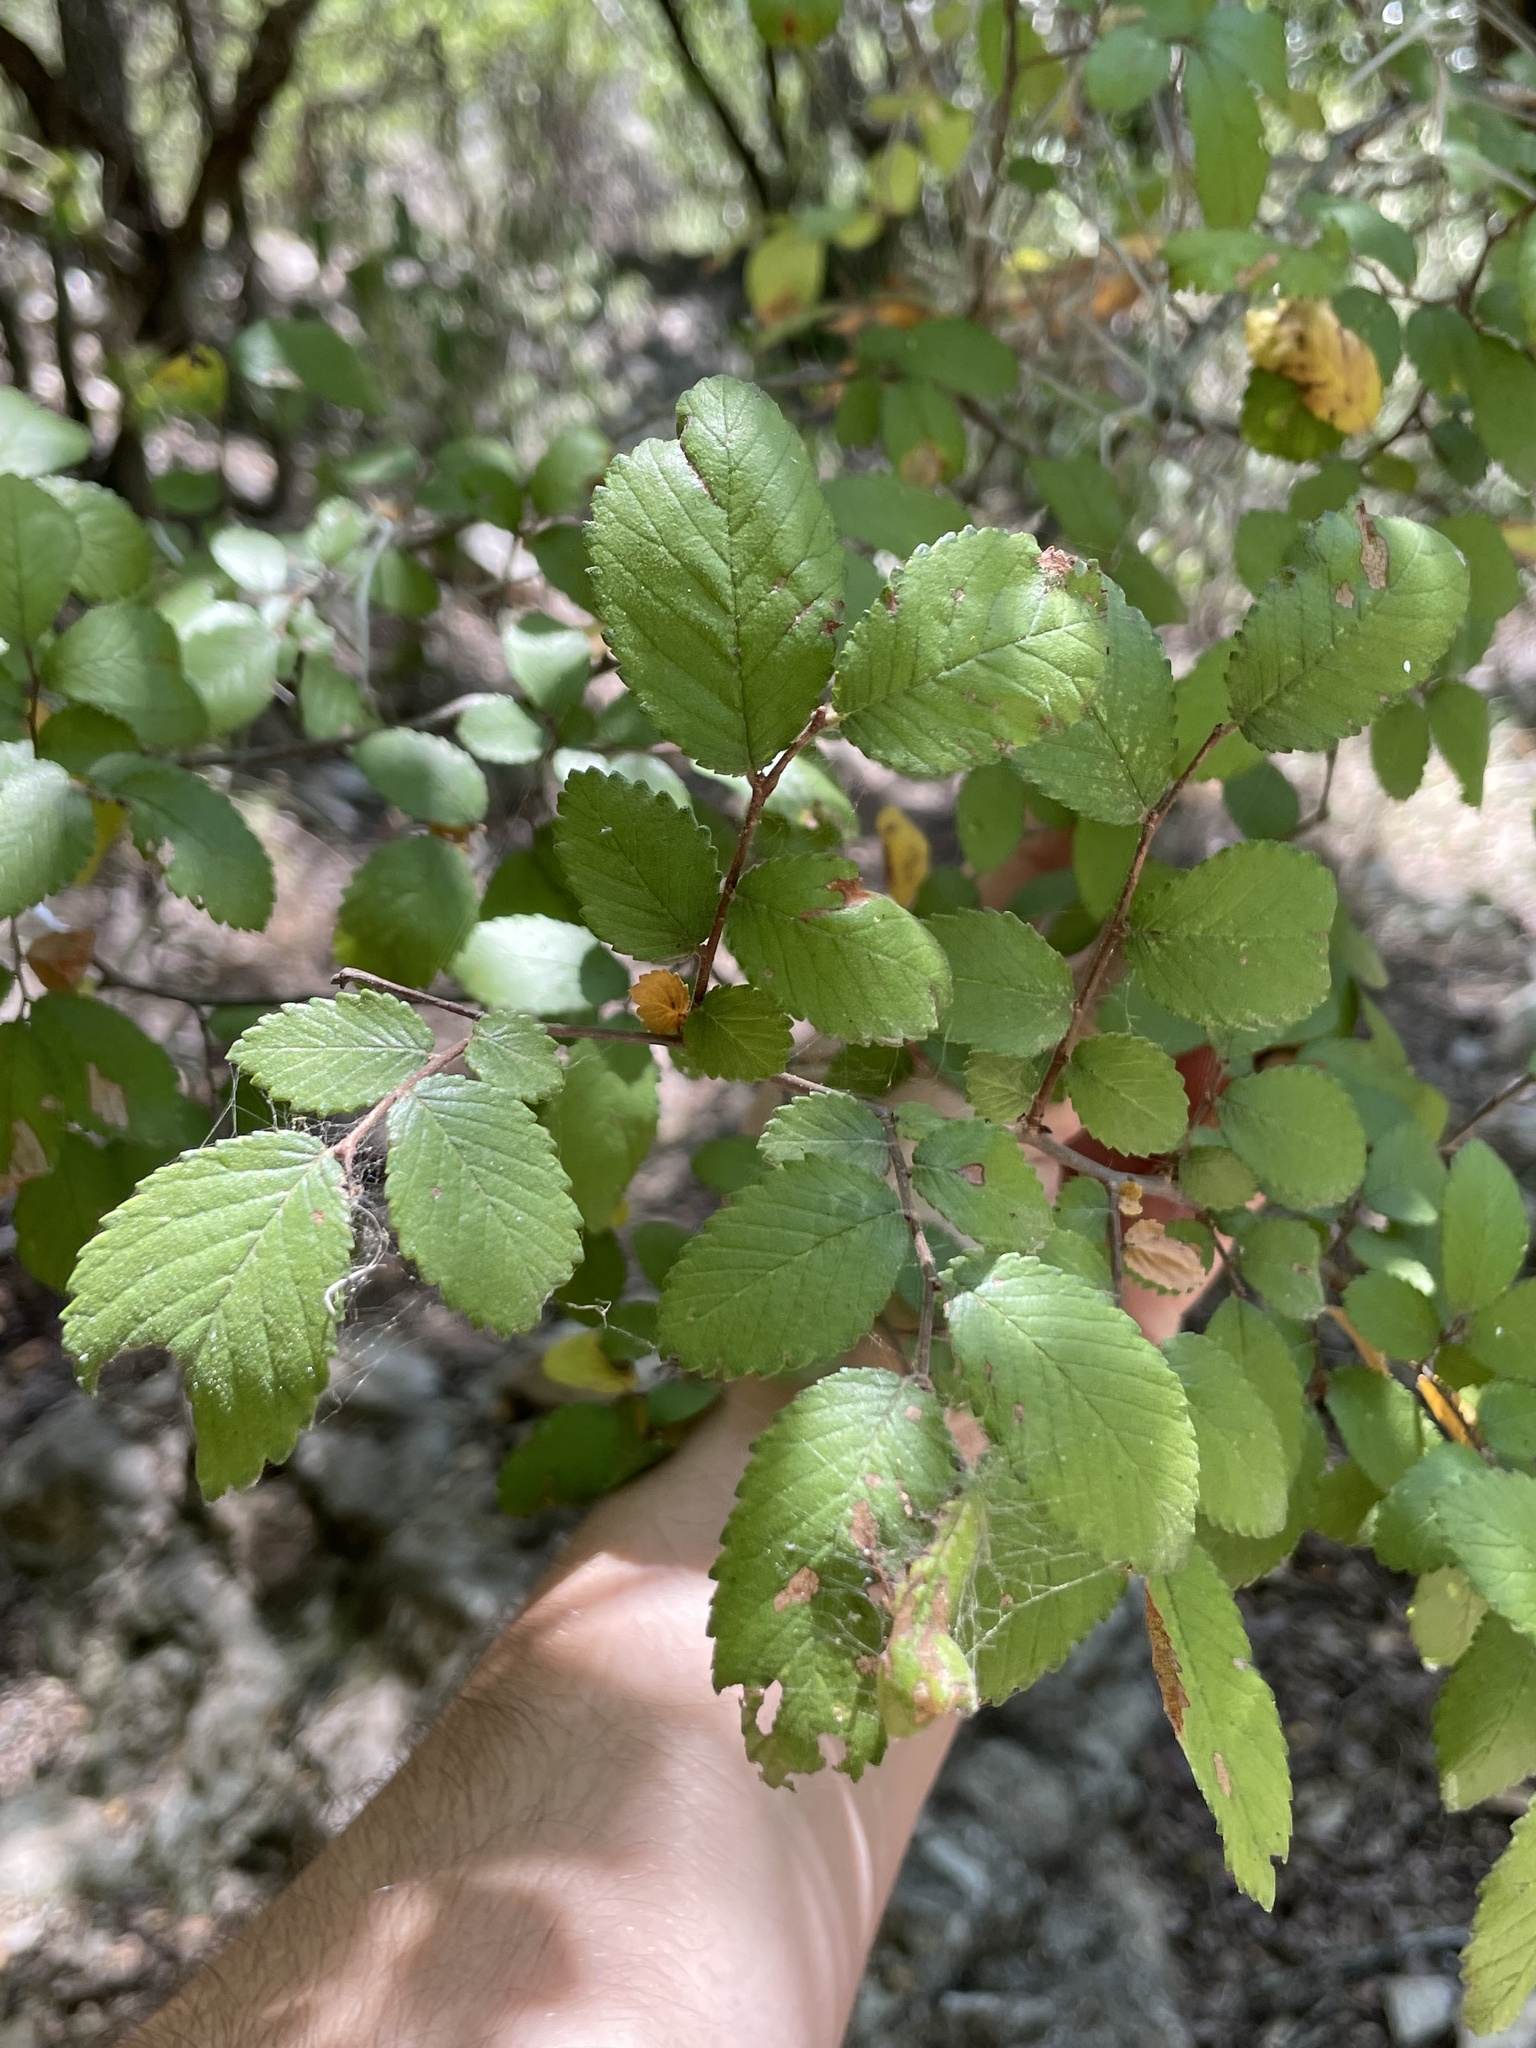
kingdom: Plantae
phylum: Tracheophyta
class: Magnoliopsida
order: Rosales
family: Ulmaceae
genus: Ulmus
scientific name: Ulmus crassifolia
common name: Basket elm
